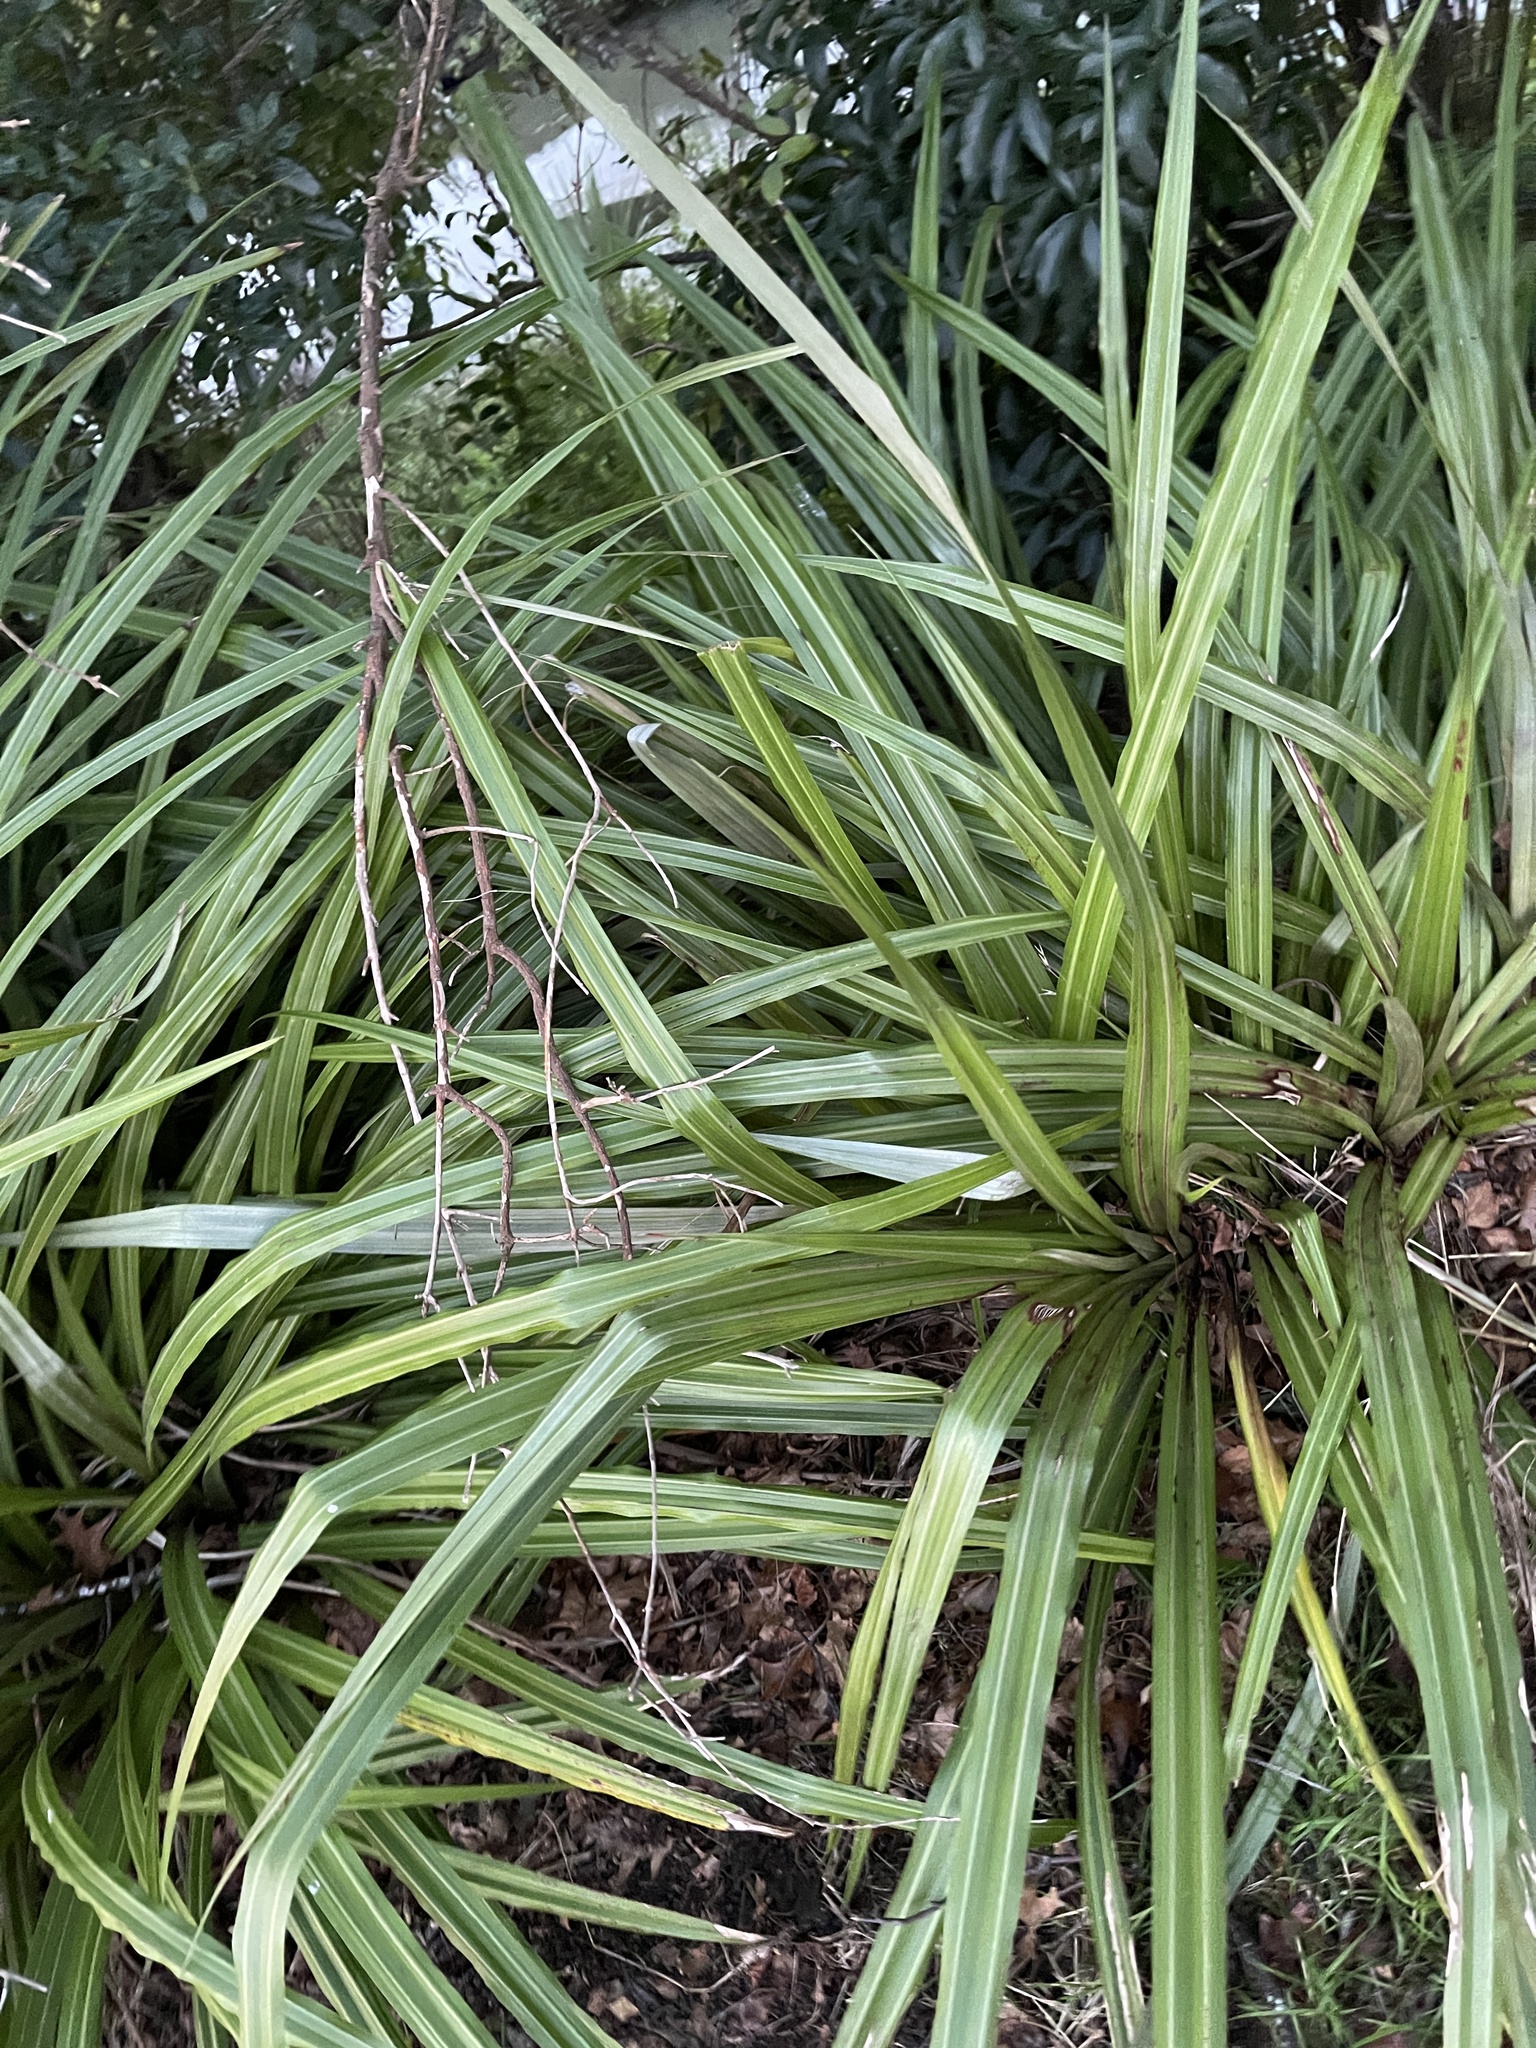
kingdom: Plantae
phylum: Tracheophyta
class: Liliopsida
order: Asparagales
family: Asteliaceae
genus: Astelia
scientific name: Astelia fragrans
